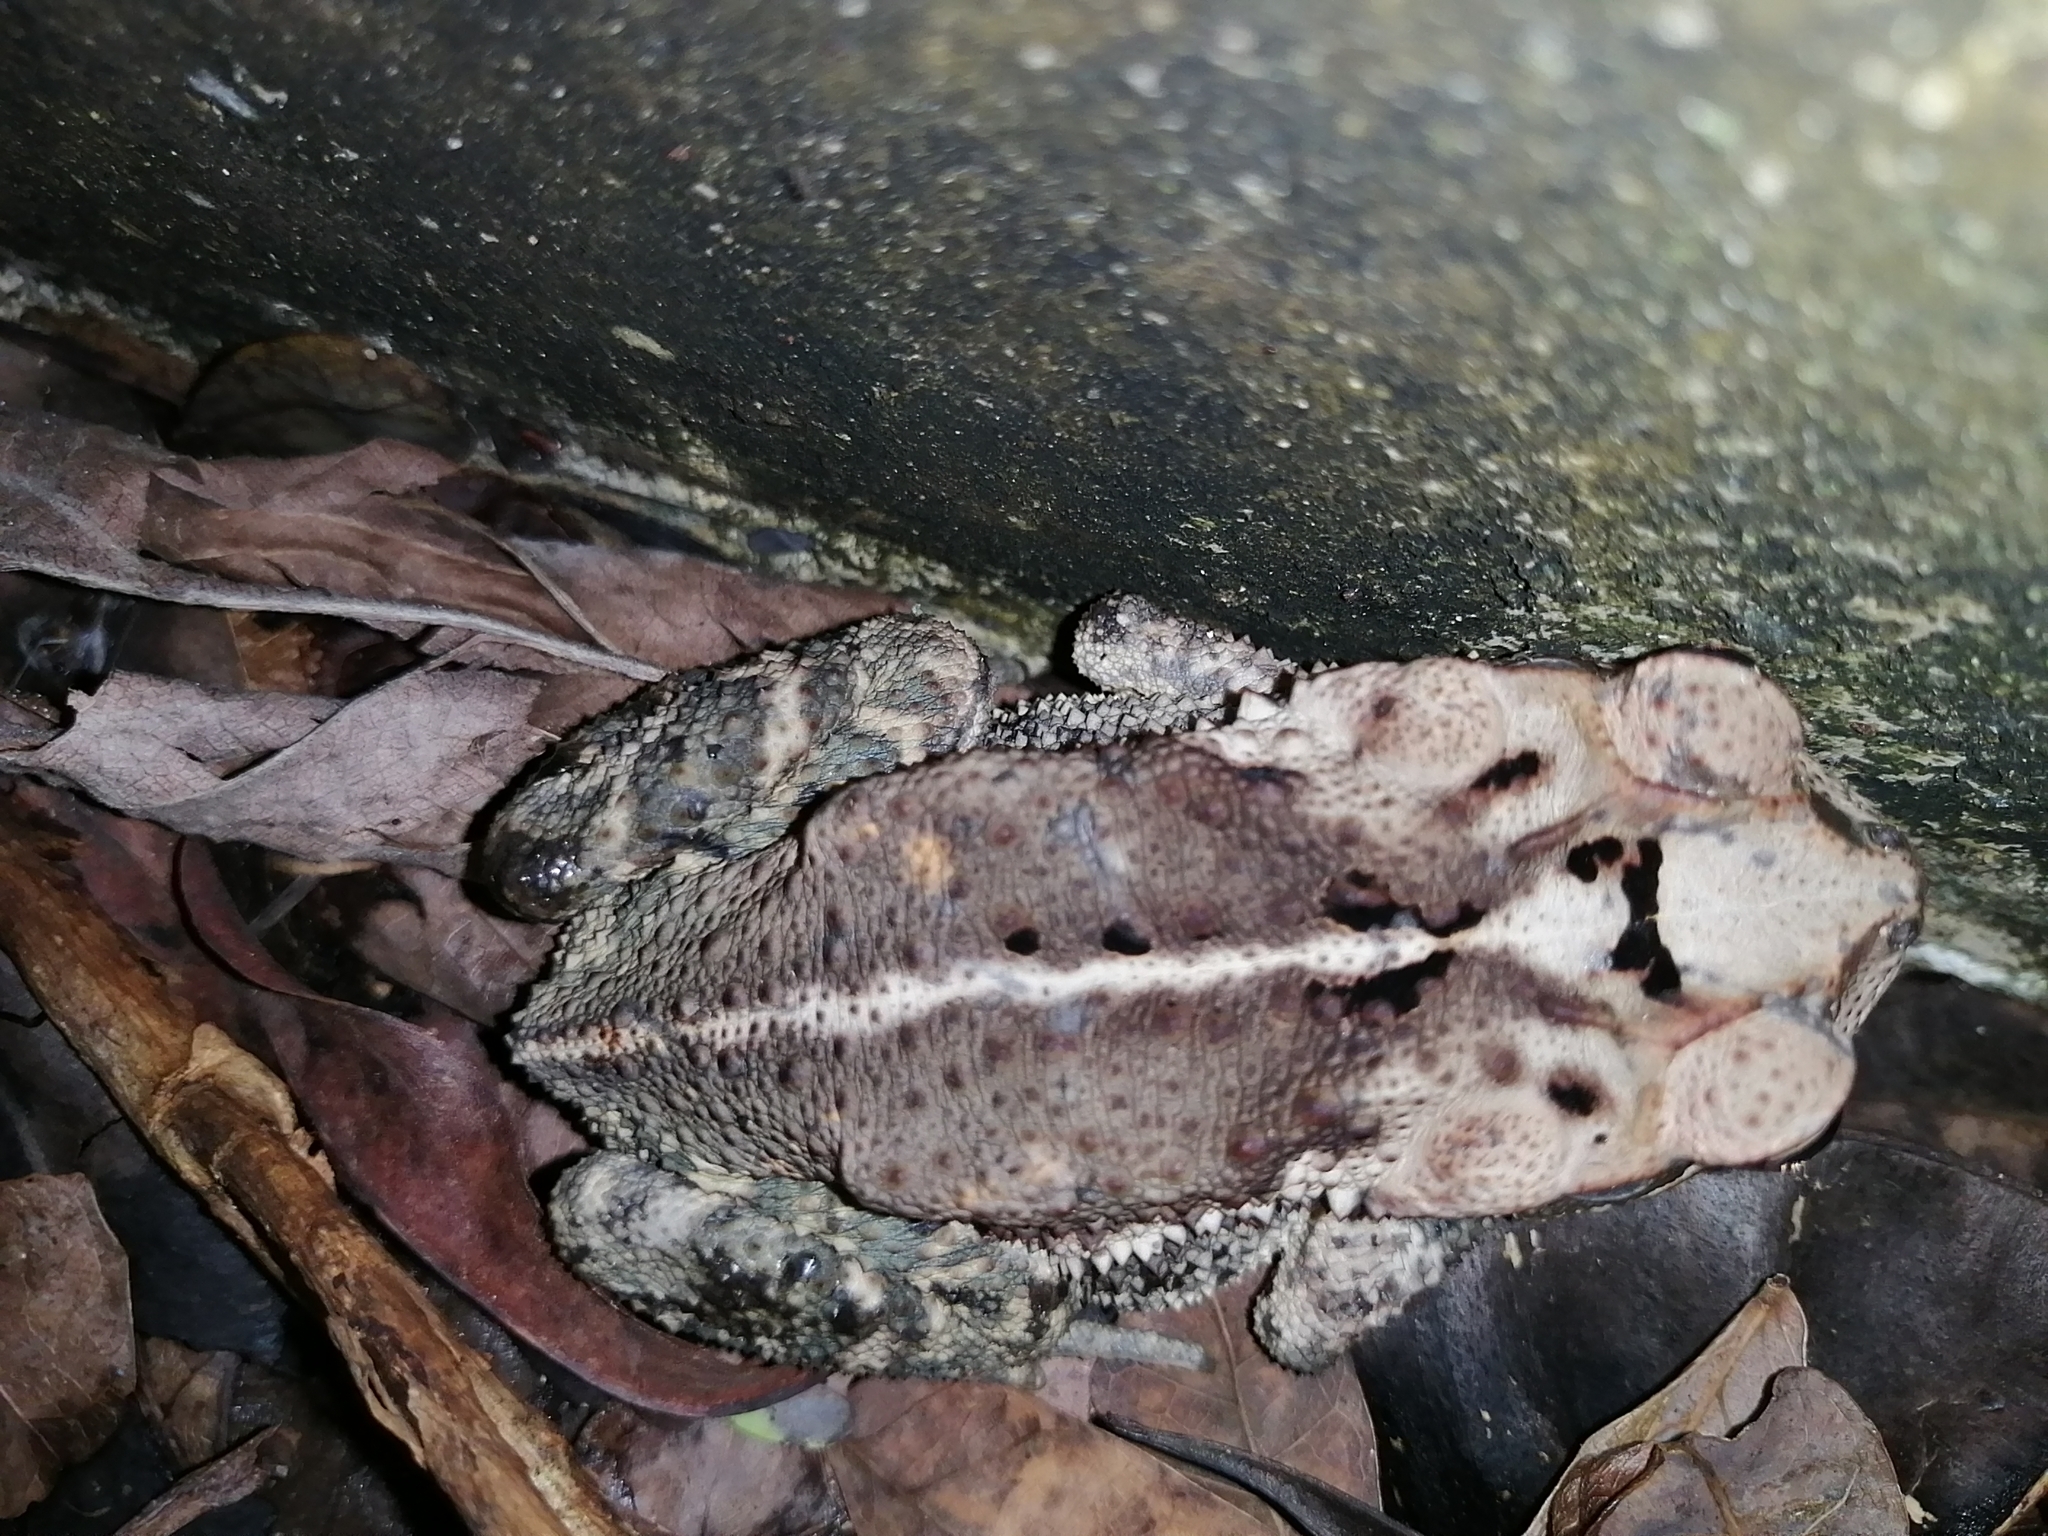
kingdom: Animalia
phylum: Chordata
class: Amphibia
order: Anura
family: Bufonidae
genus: Incilius
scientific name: Incilius valliceps
